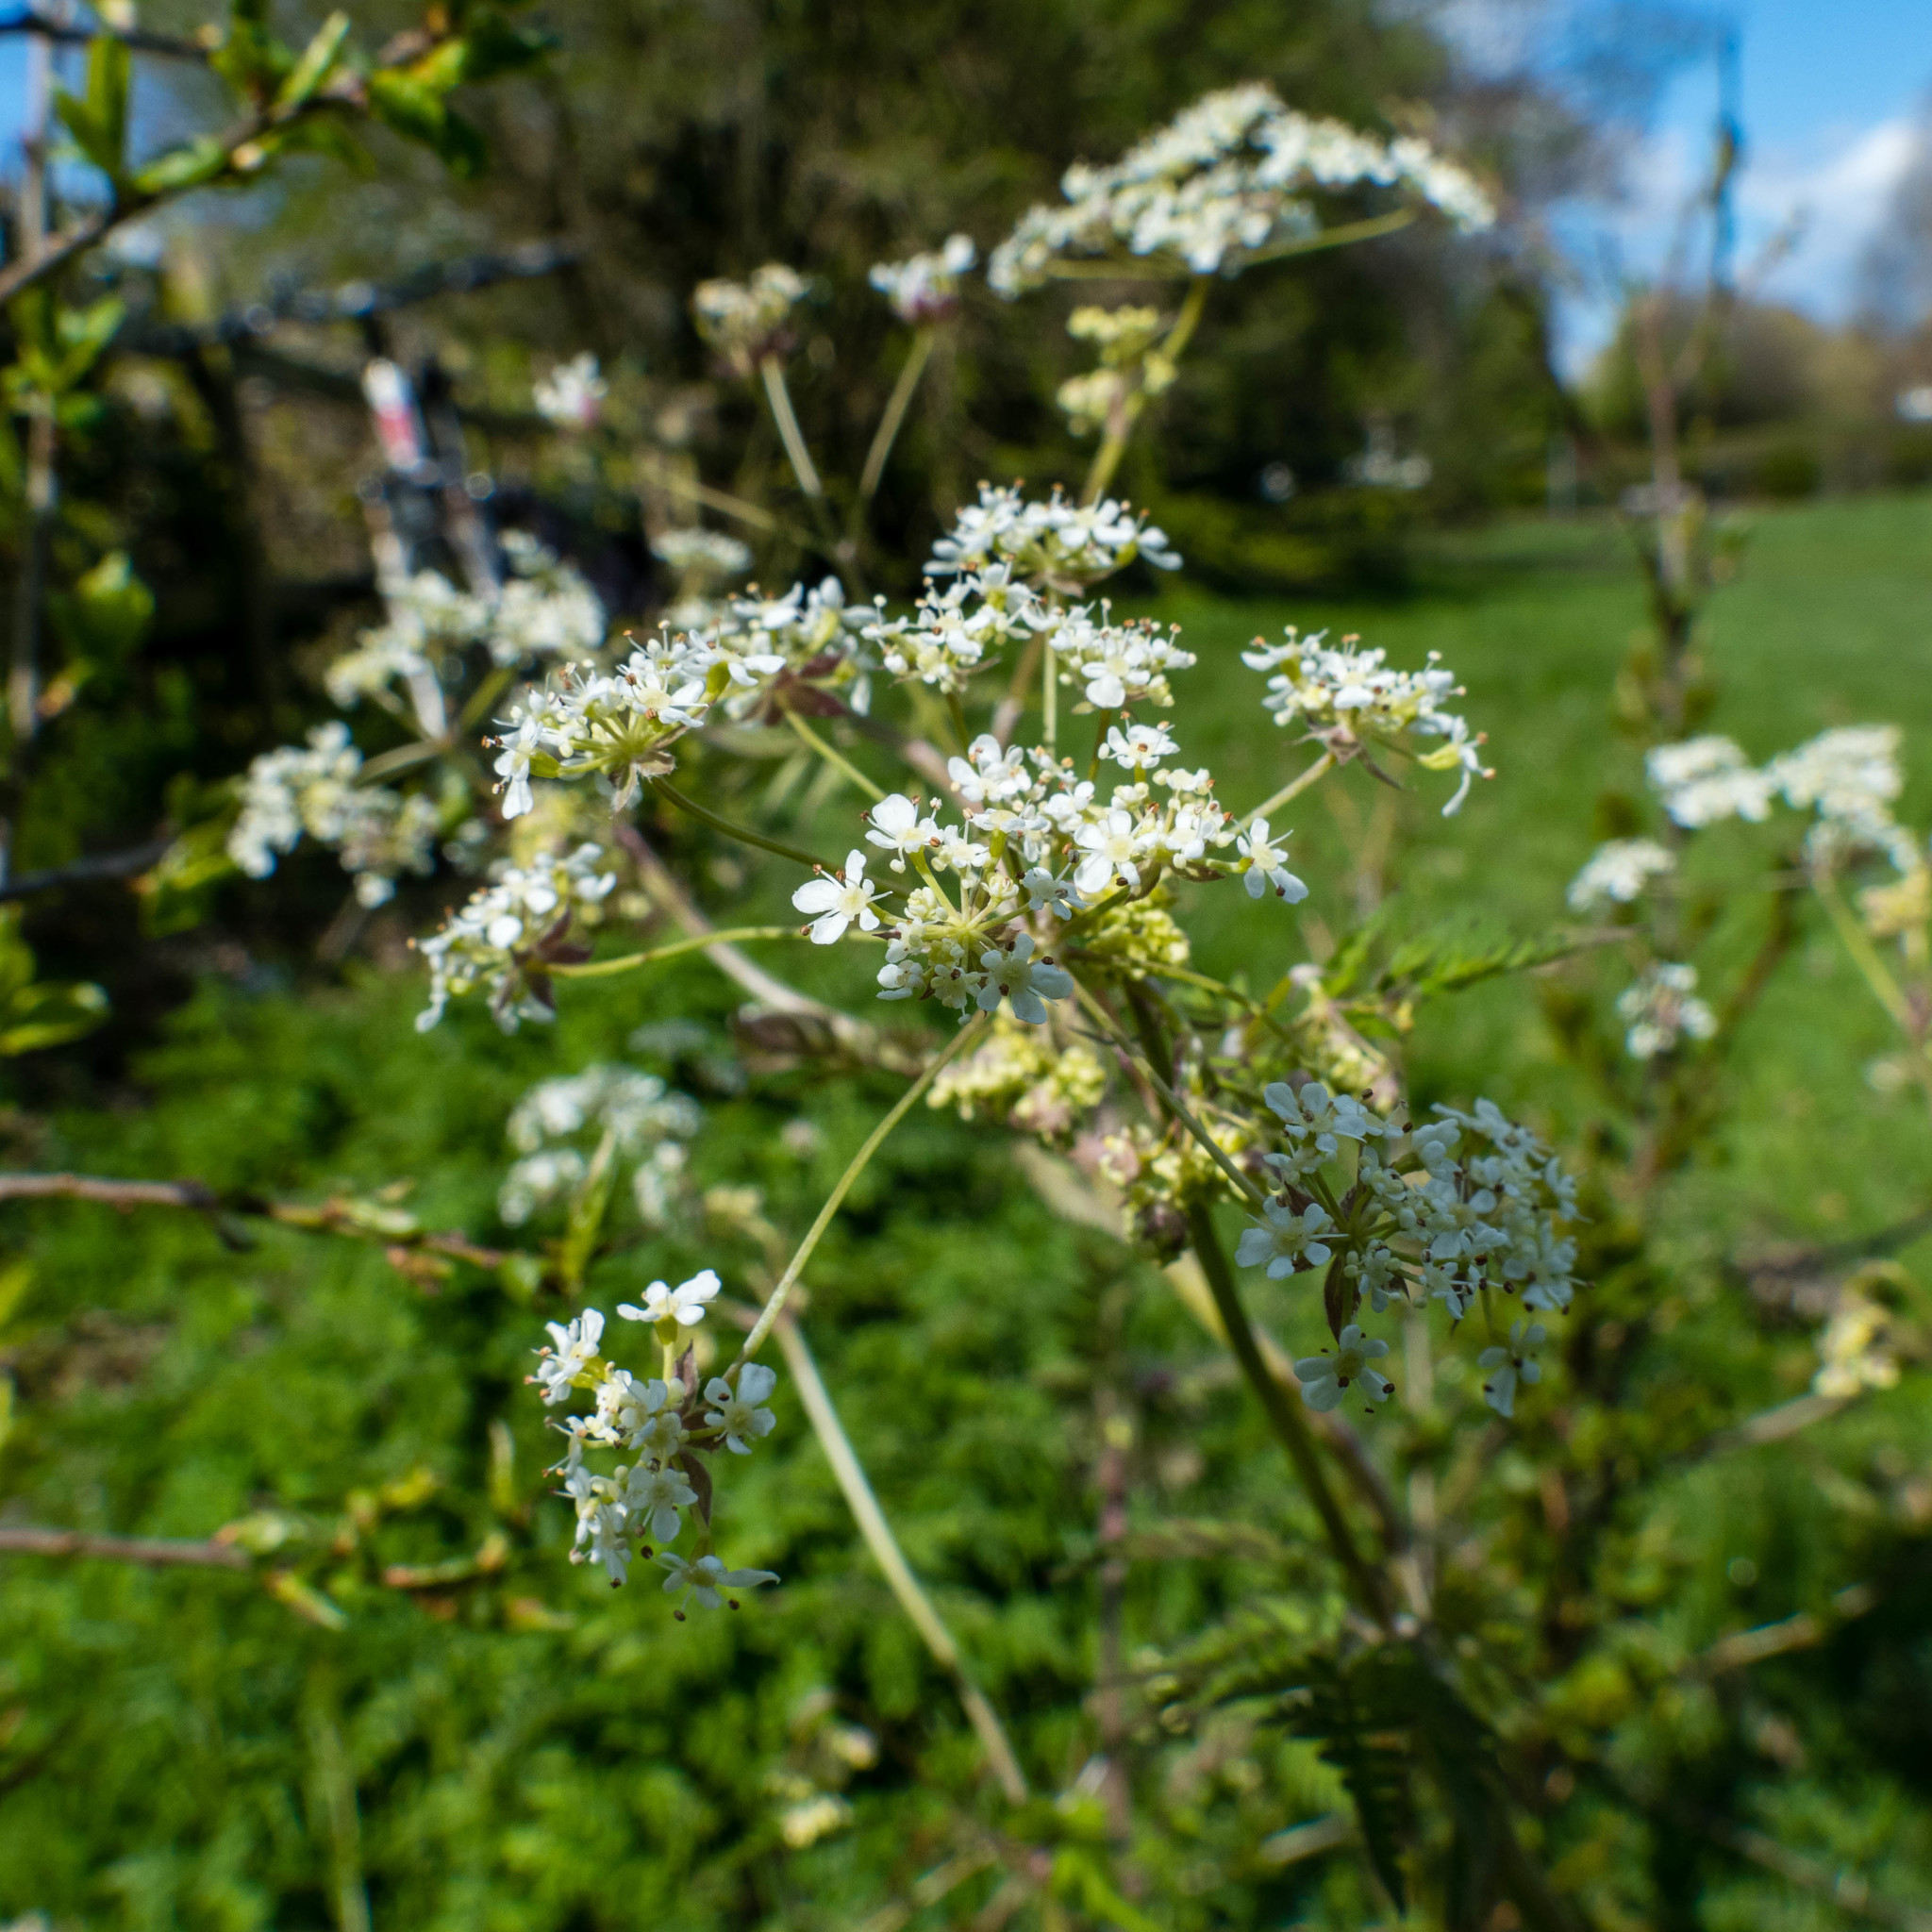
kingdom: Plantae
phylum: Tracheophyta
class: Magnoliopsida
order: Apiales
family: Apiaceae
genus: Anthriscus
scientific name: Anthriscus sylvestris
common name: Cow parsley
